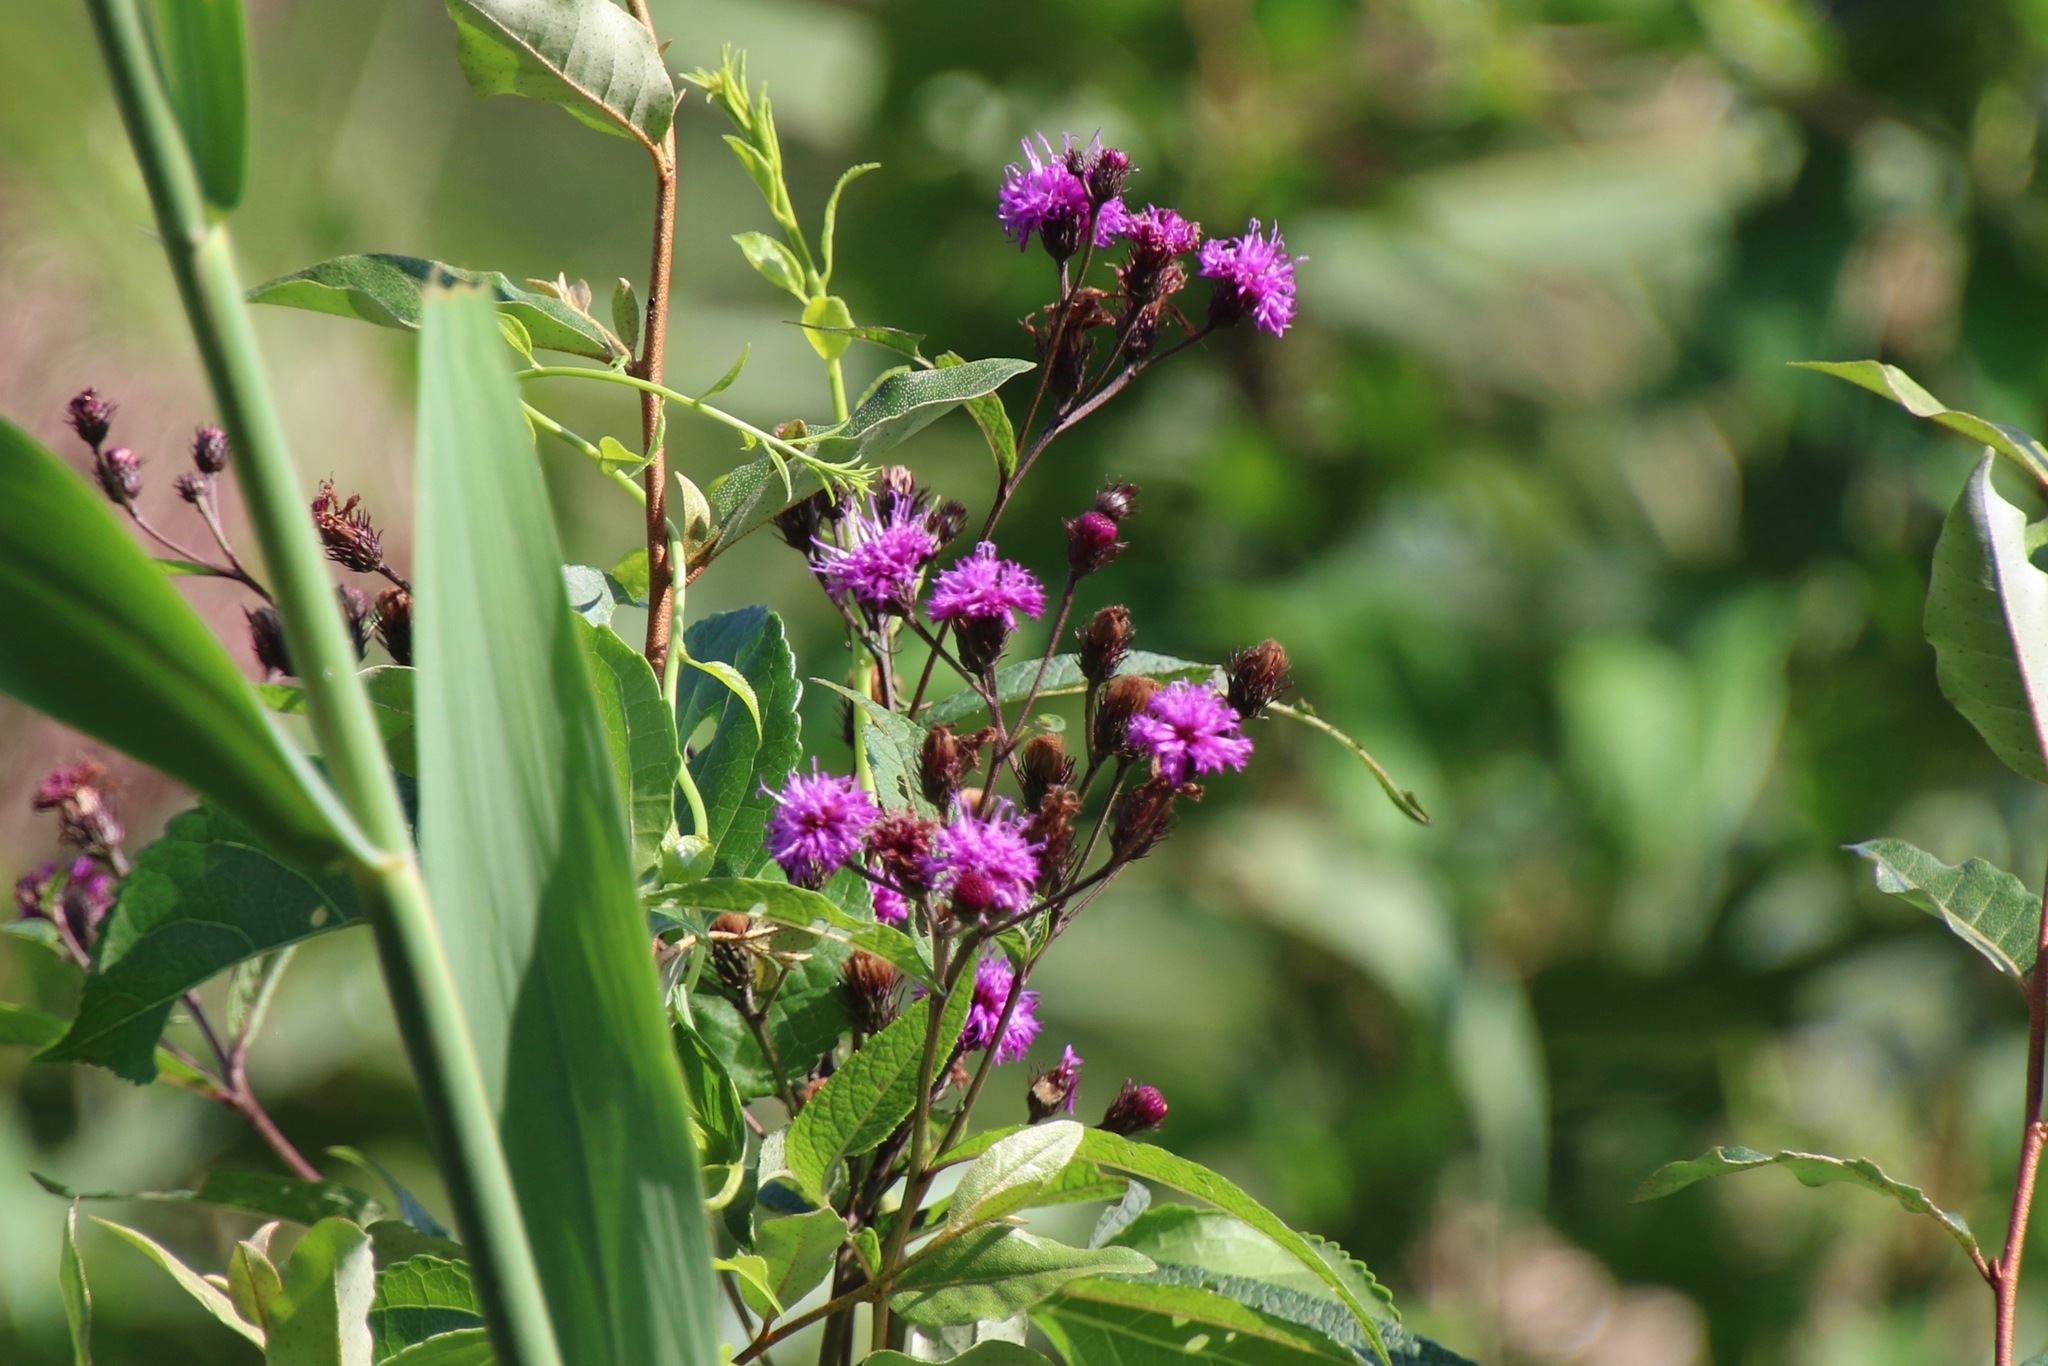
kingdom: Plantae
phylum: Tracheophyta
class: Magnoliopsida
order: Asterales
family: Asteraceae
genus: Vernonia
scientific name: Vernonia noveboracensis
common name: New york ironweed
